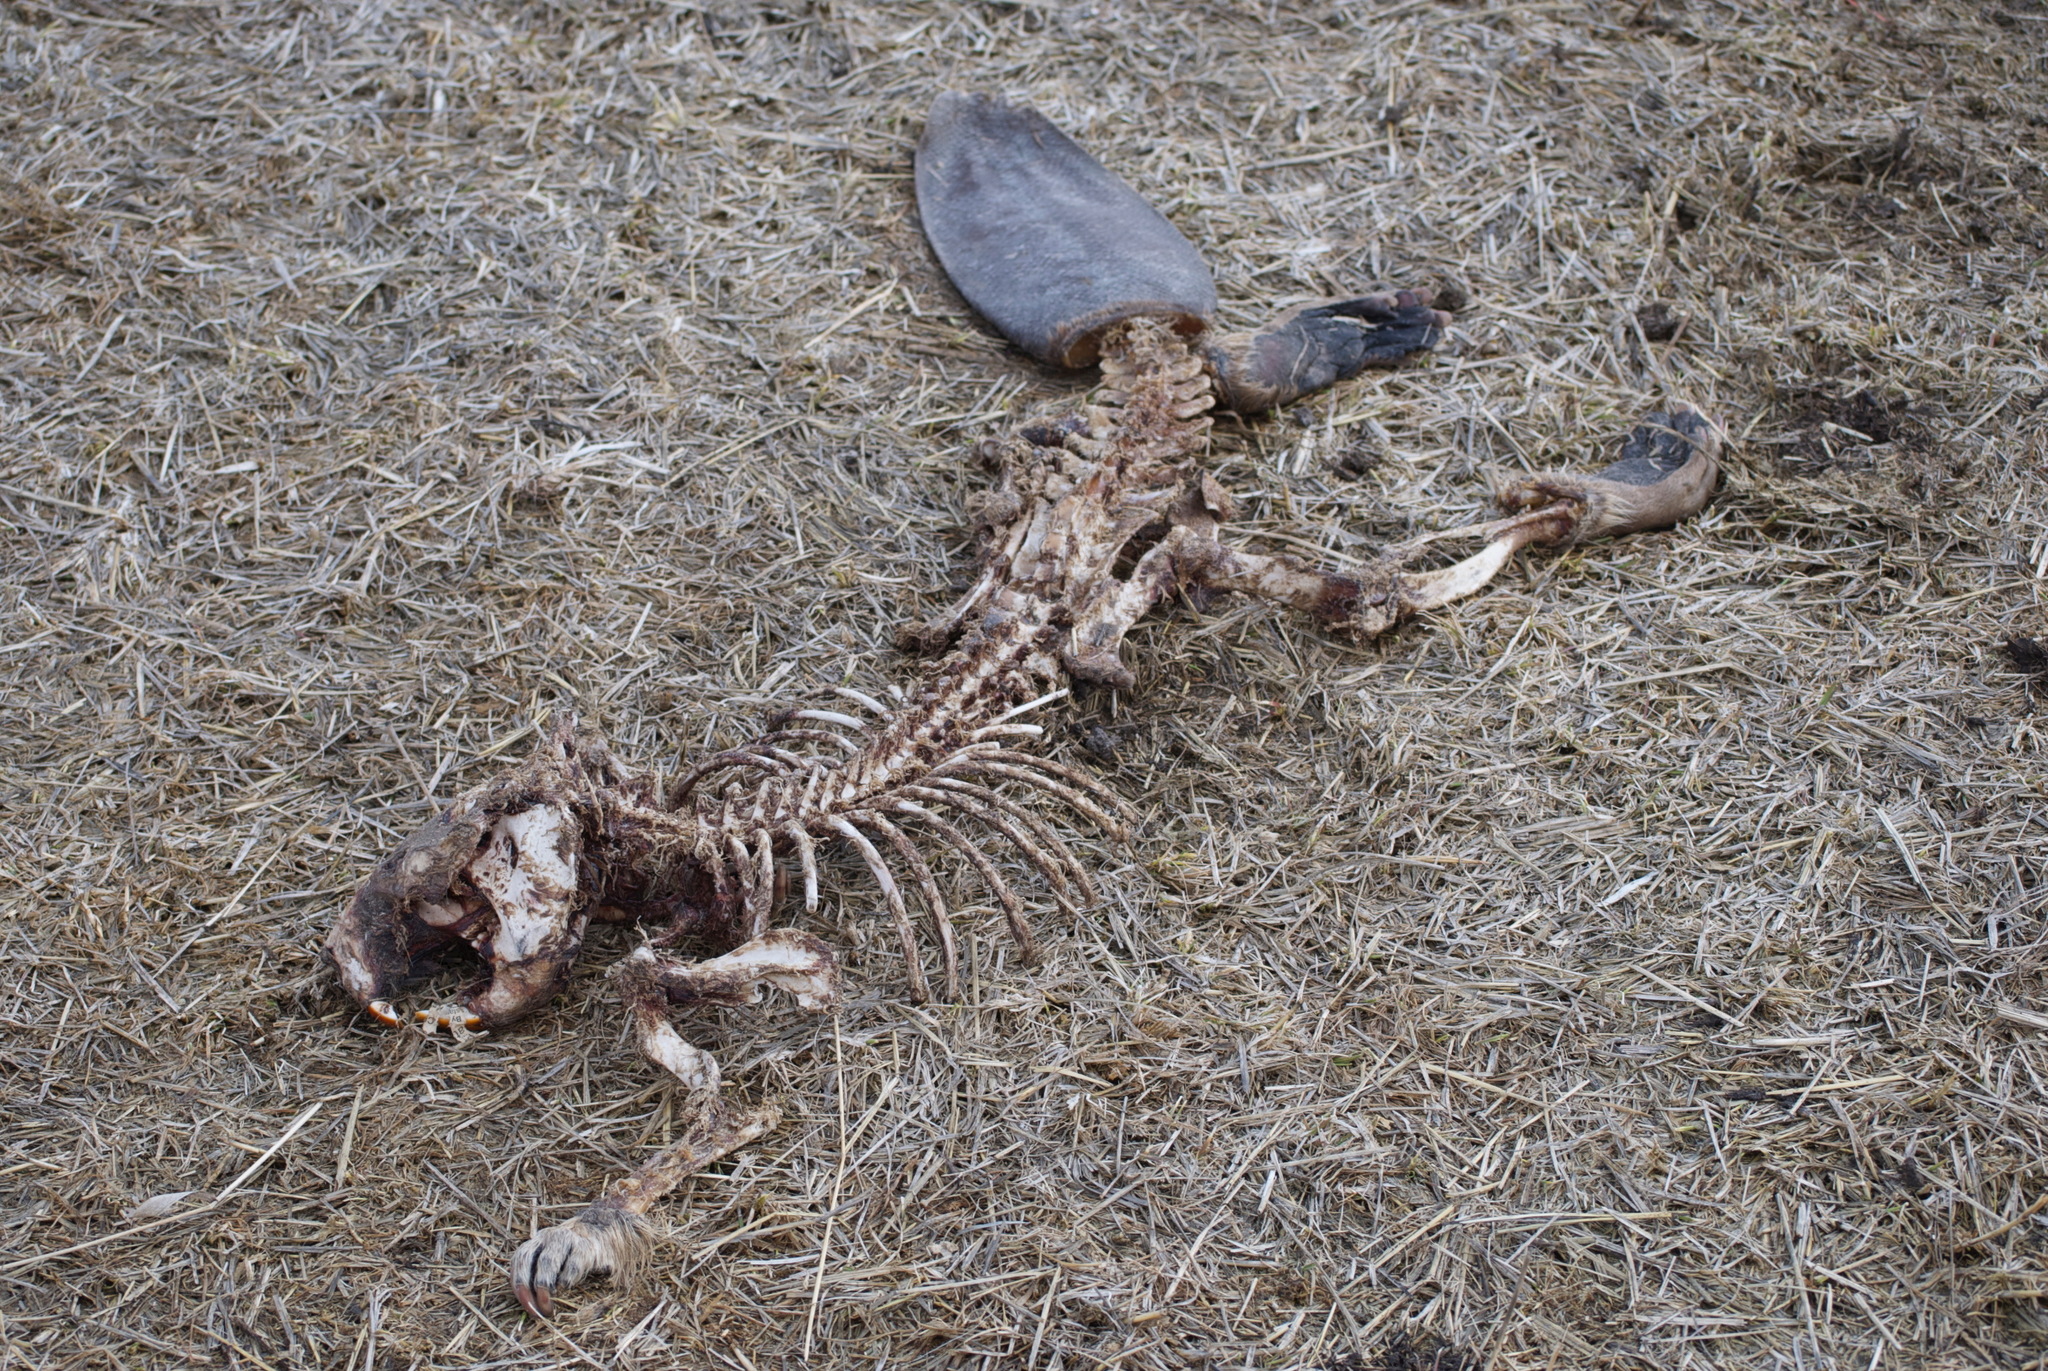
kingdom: Animalia
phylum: Chordata
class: Mammalia
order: Rodentia
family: Castoridae
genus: Castor
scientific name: Castor canadensis
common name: American beaver
